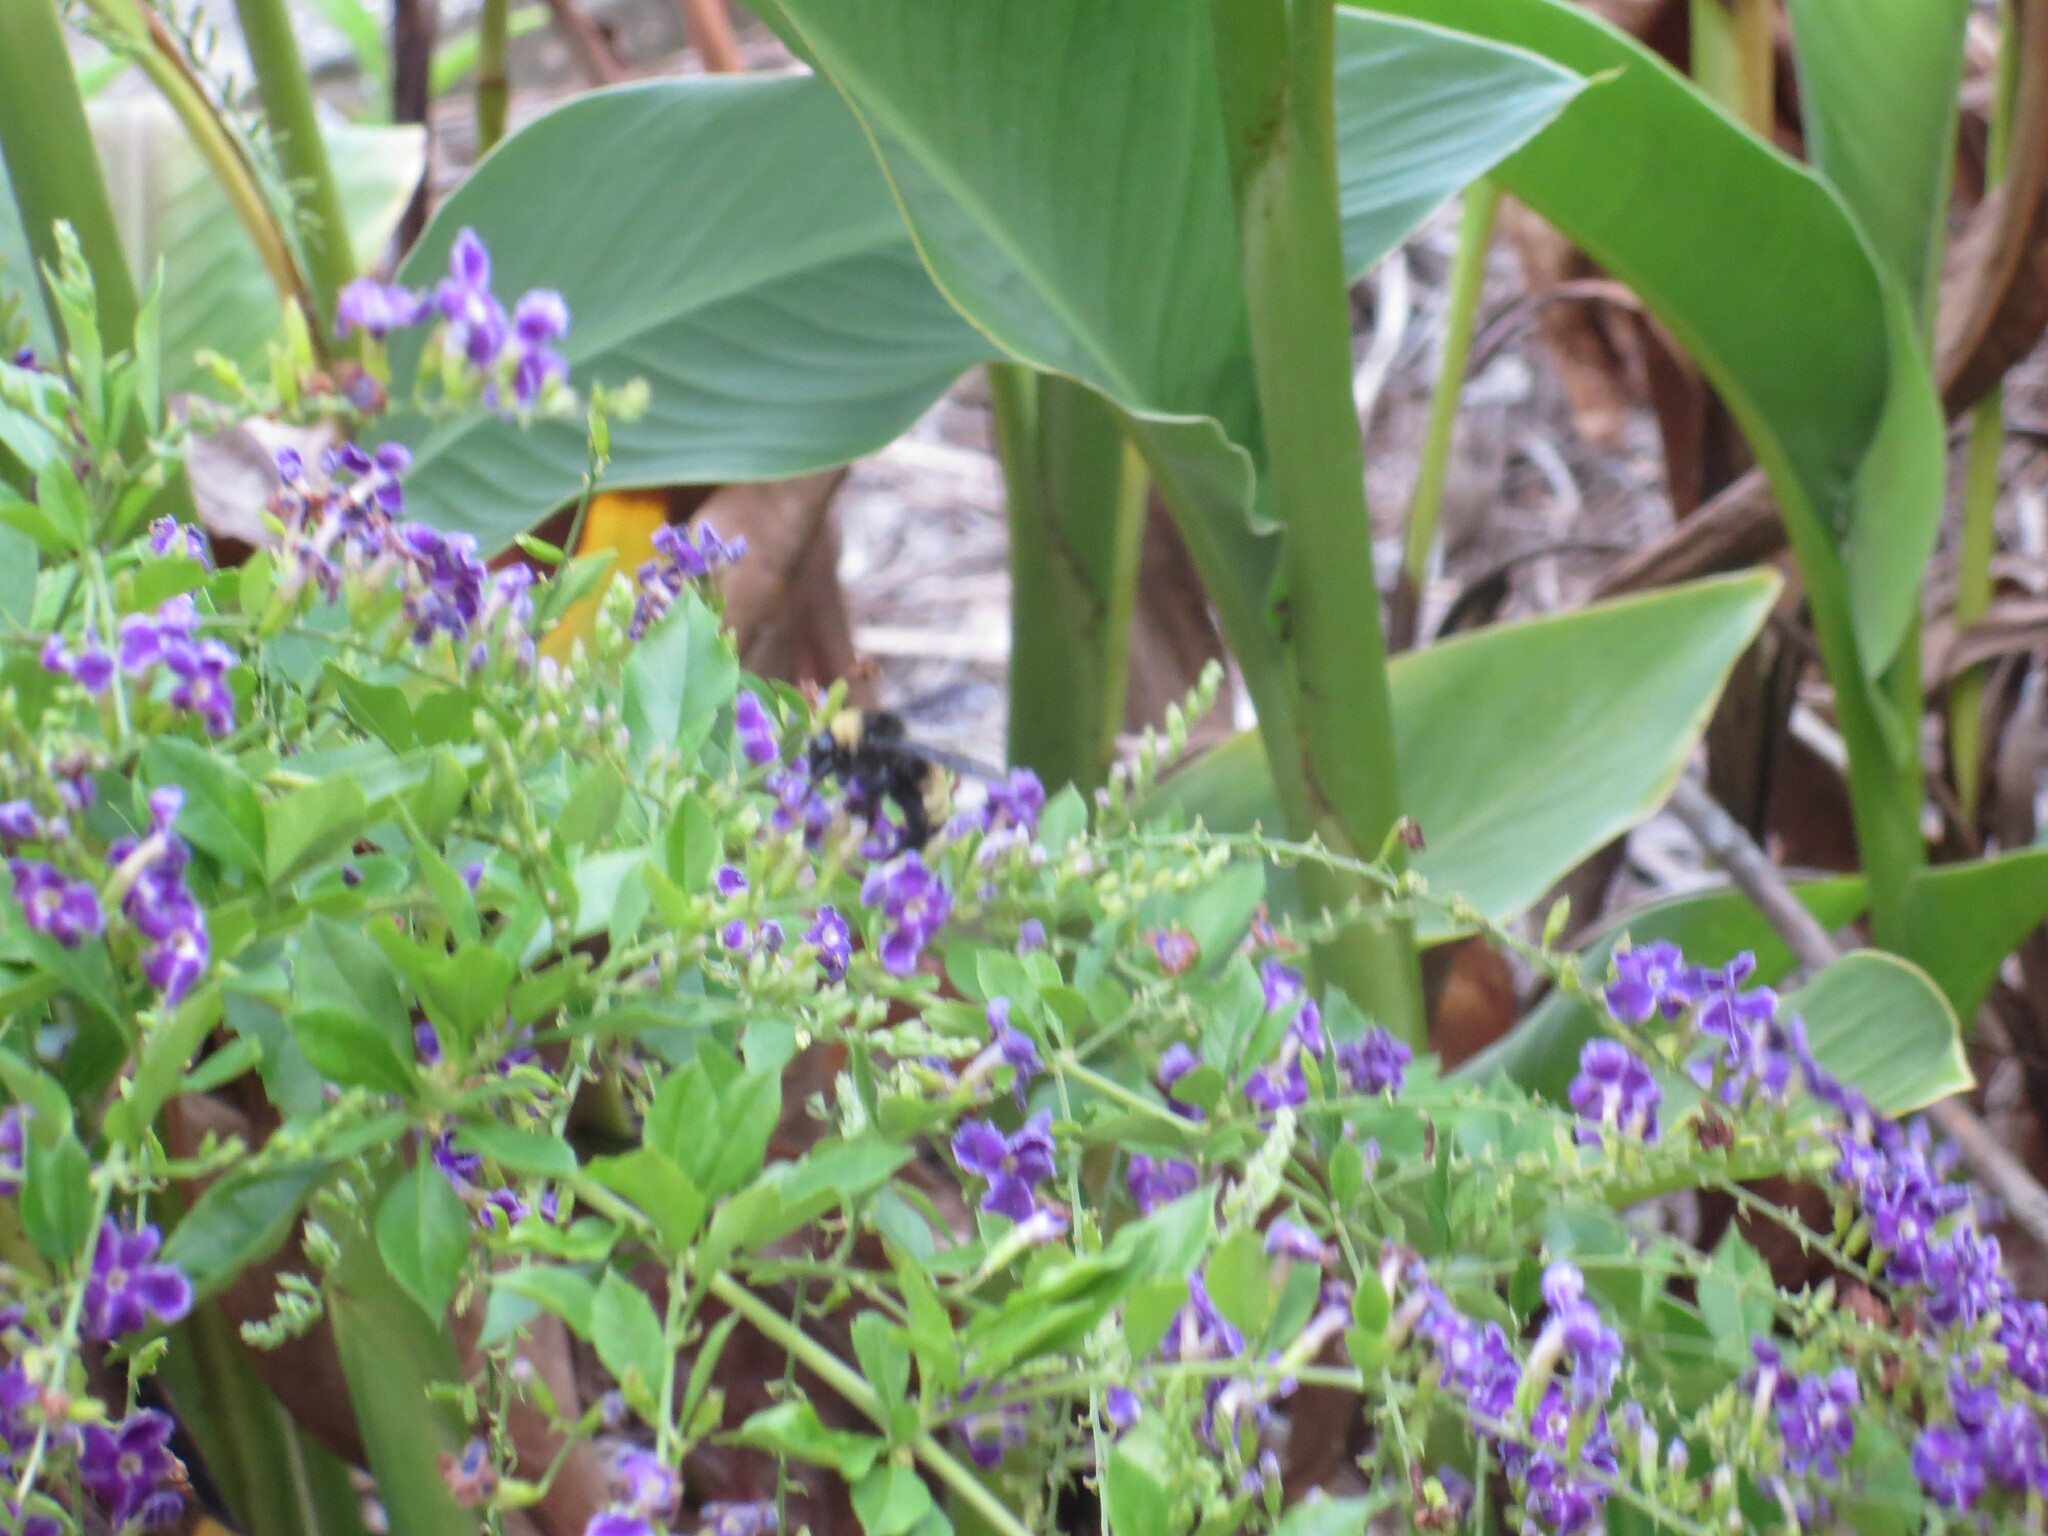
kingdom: Animalia
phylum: Arthropoda
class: Insecta
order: Hymenoptera
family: Apidae
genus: Bombus
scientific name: Bombus pensylvanicus
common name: Bumble bee
